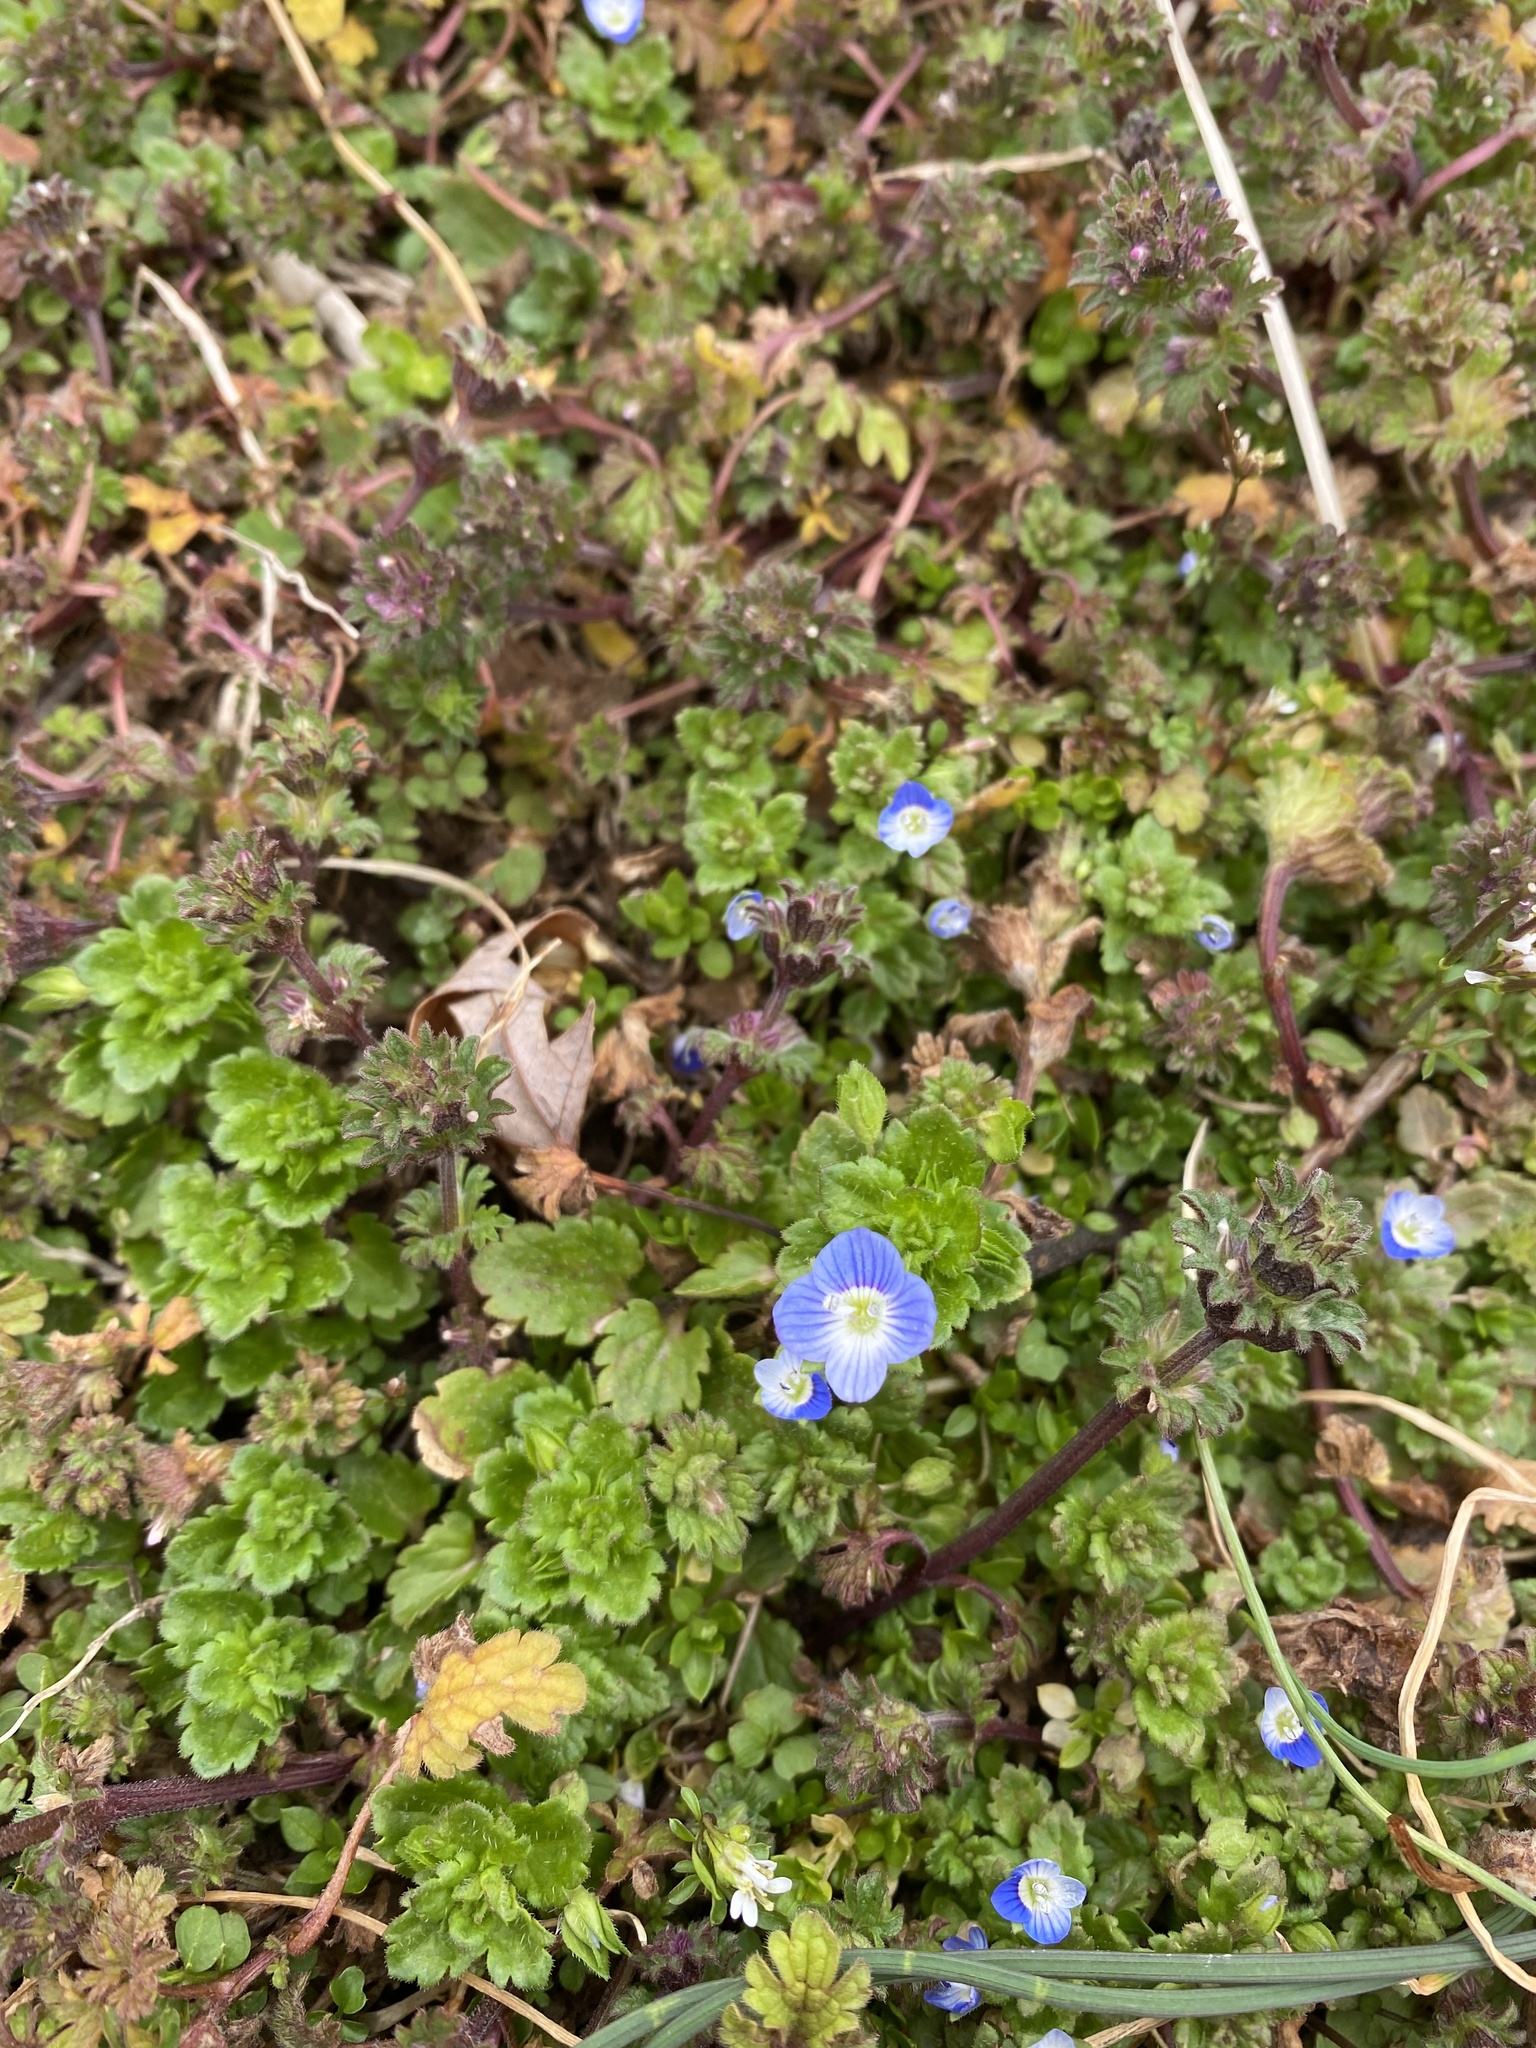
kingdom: Plantae
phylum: Tracheophyta
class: Magnoliopsida
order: Lamiales
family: Plantaginaceae
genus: Veronica
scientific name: Veronica persica
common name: Common field-speedwell
